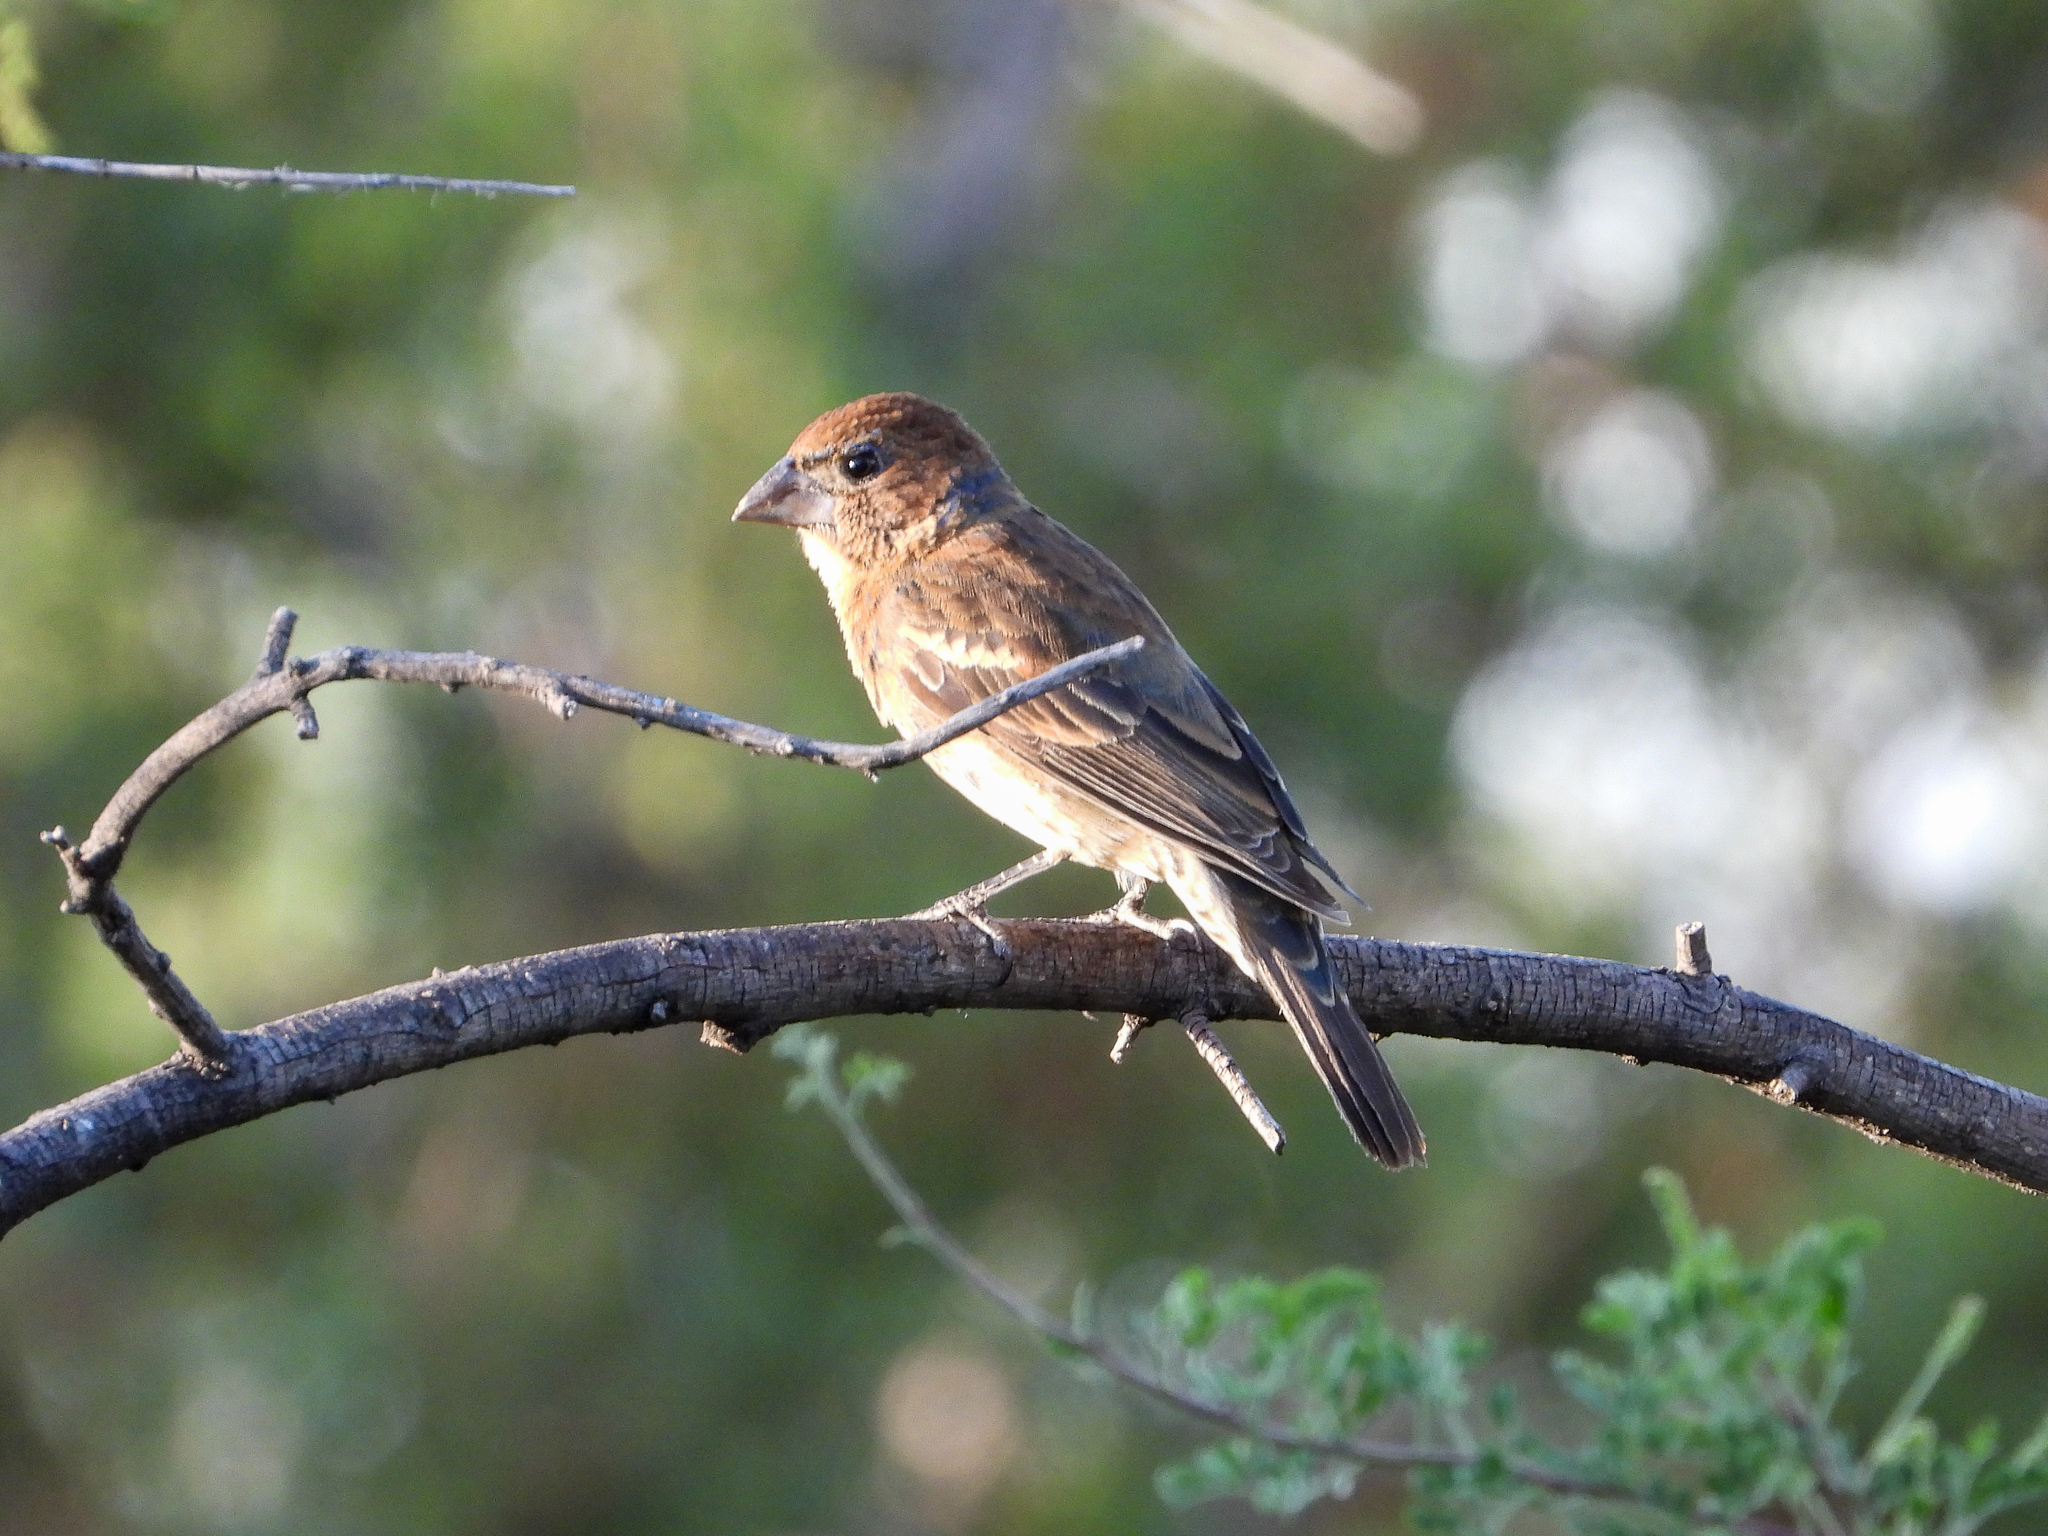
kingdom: Animalia
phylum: Chordata
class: Aves
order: Passeriformes
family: Cardinalidae
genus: Passerina
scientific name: Passerina caerulea
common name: Blue grosbeak
